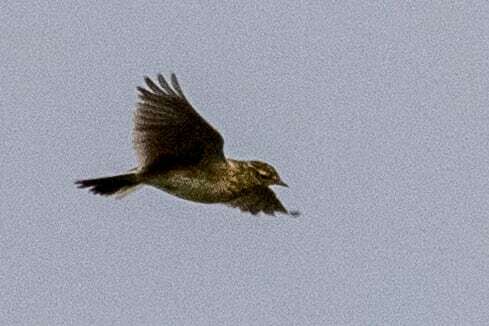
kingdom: Animalia
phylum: Chordata
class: Aves
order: Passeriformes
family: Alaudidae
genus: Alauda
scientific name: Alauda arvensis
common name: Eurasian skylark
